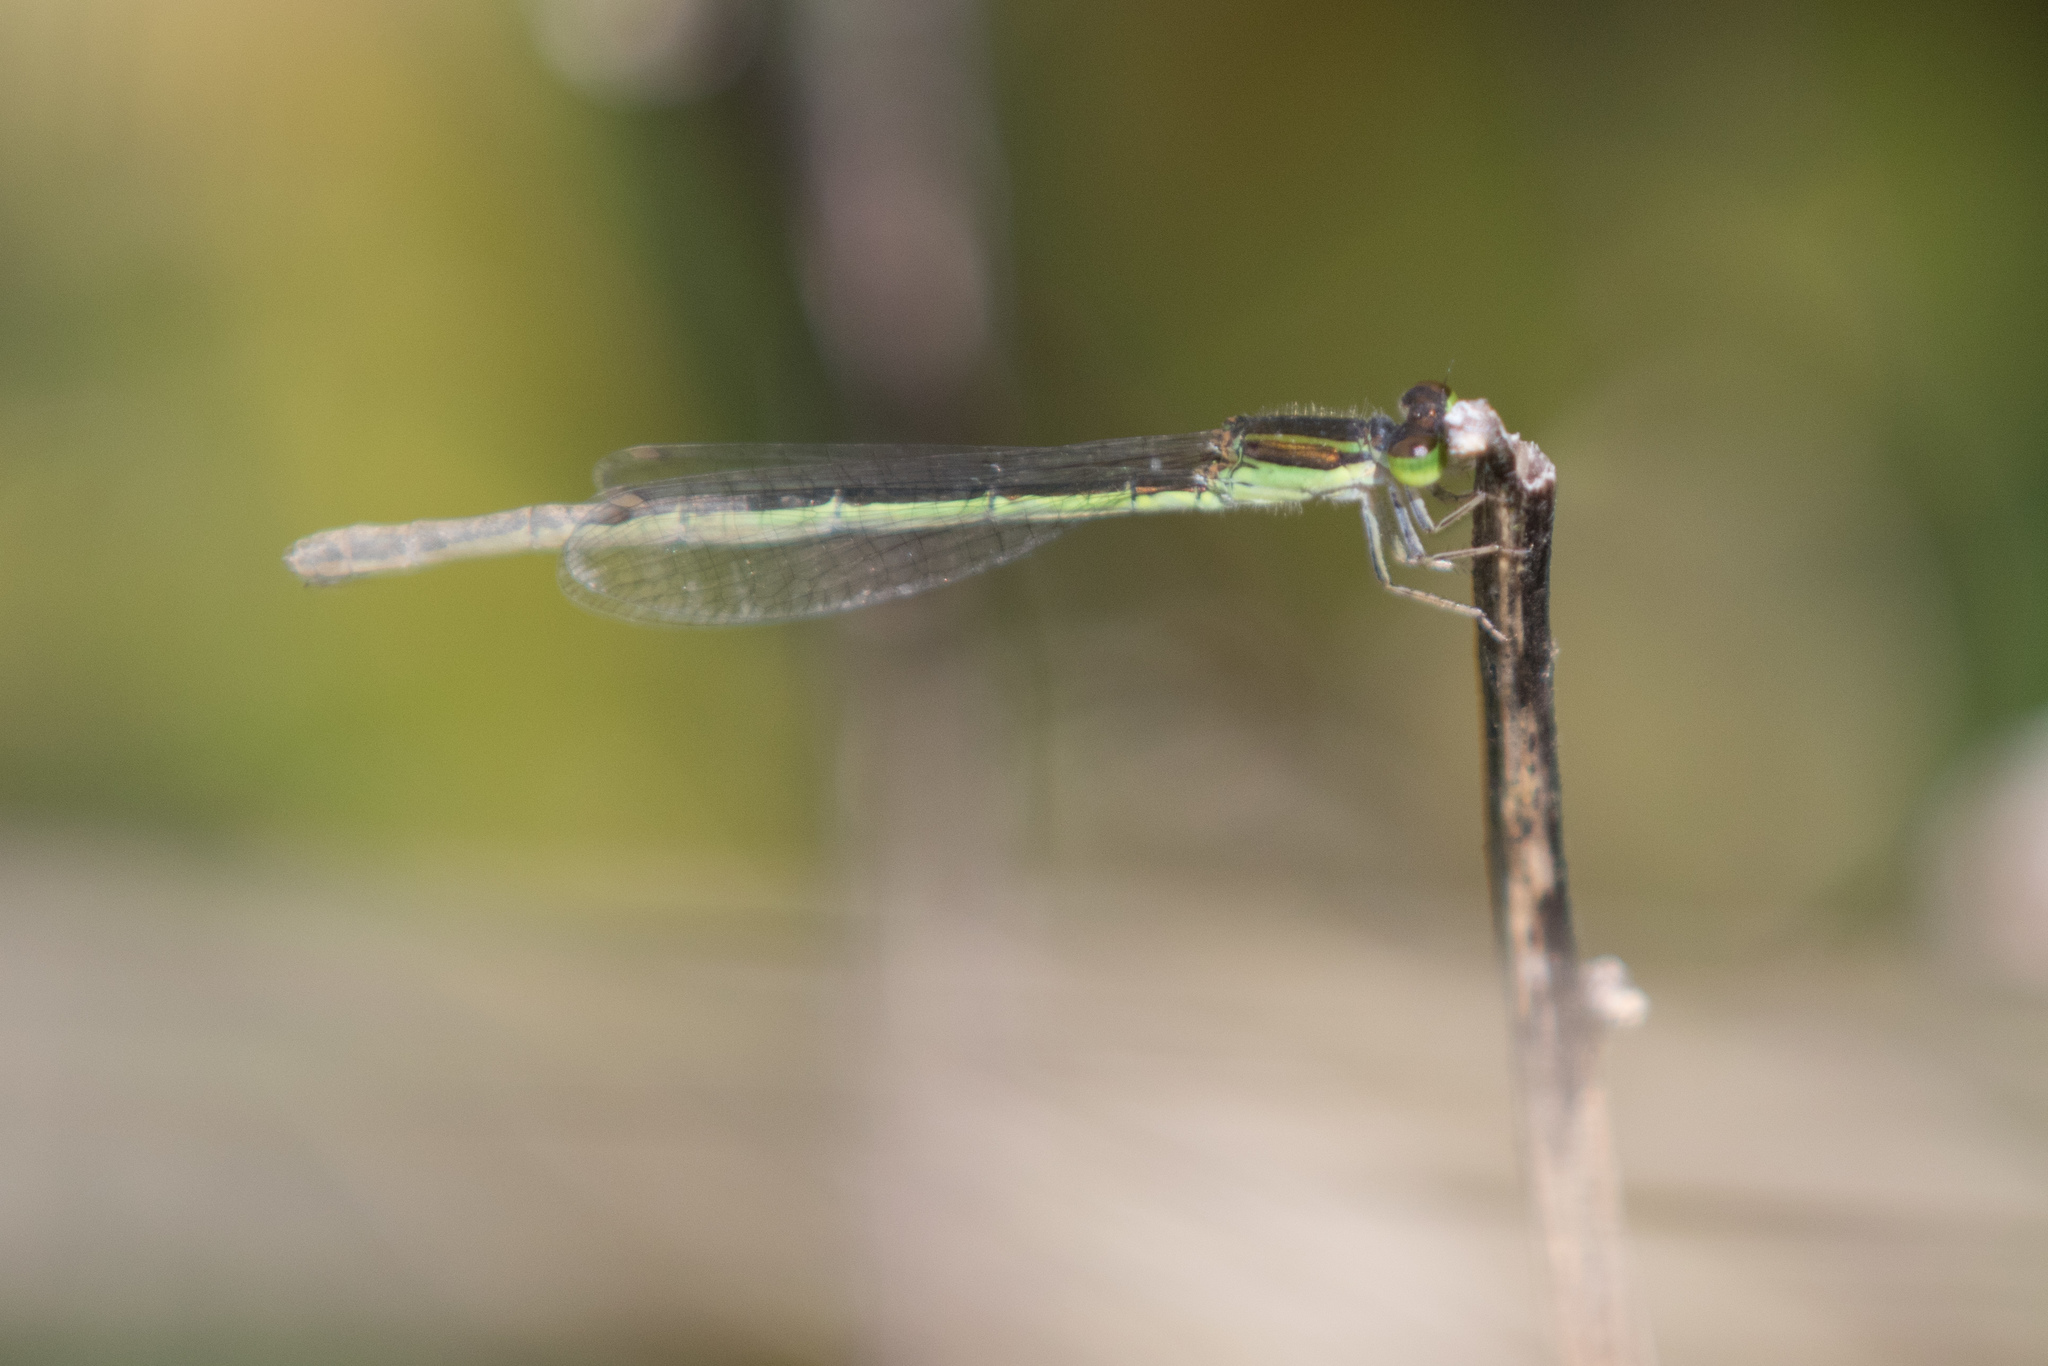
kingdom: Animalia
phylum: Arthropoda
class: Insecta
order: Odonata
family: Coenagrionidae
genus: Ischnura
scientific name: Ischnura aurora
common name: Gossamer damselfly
